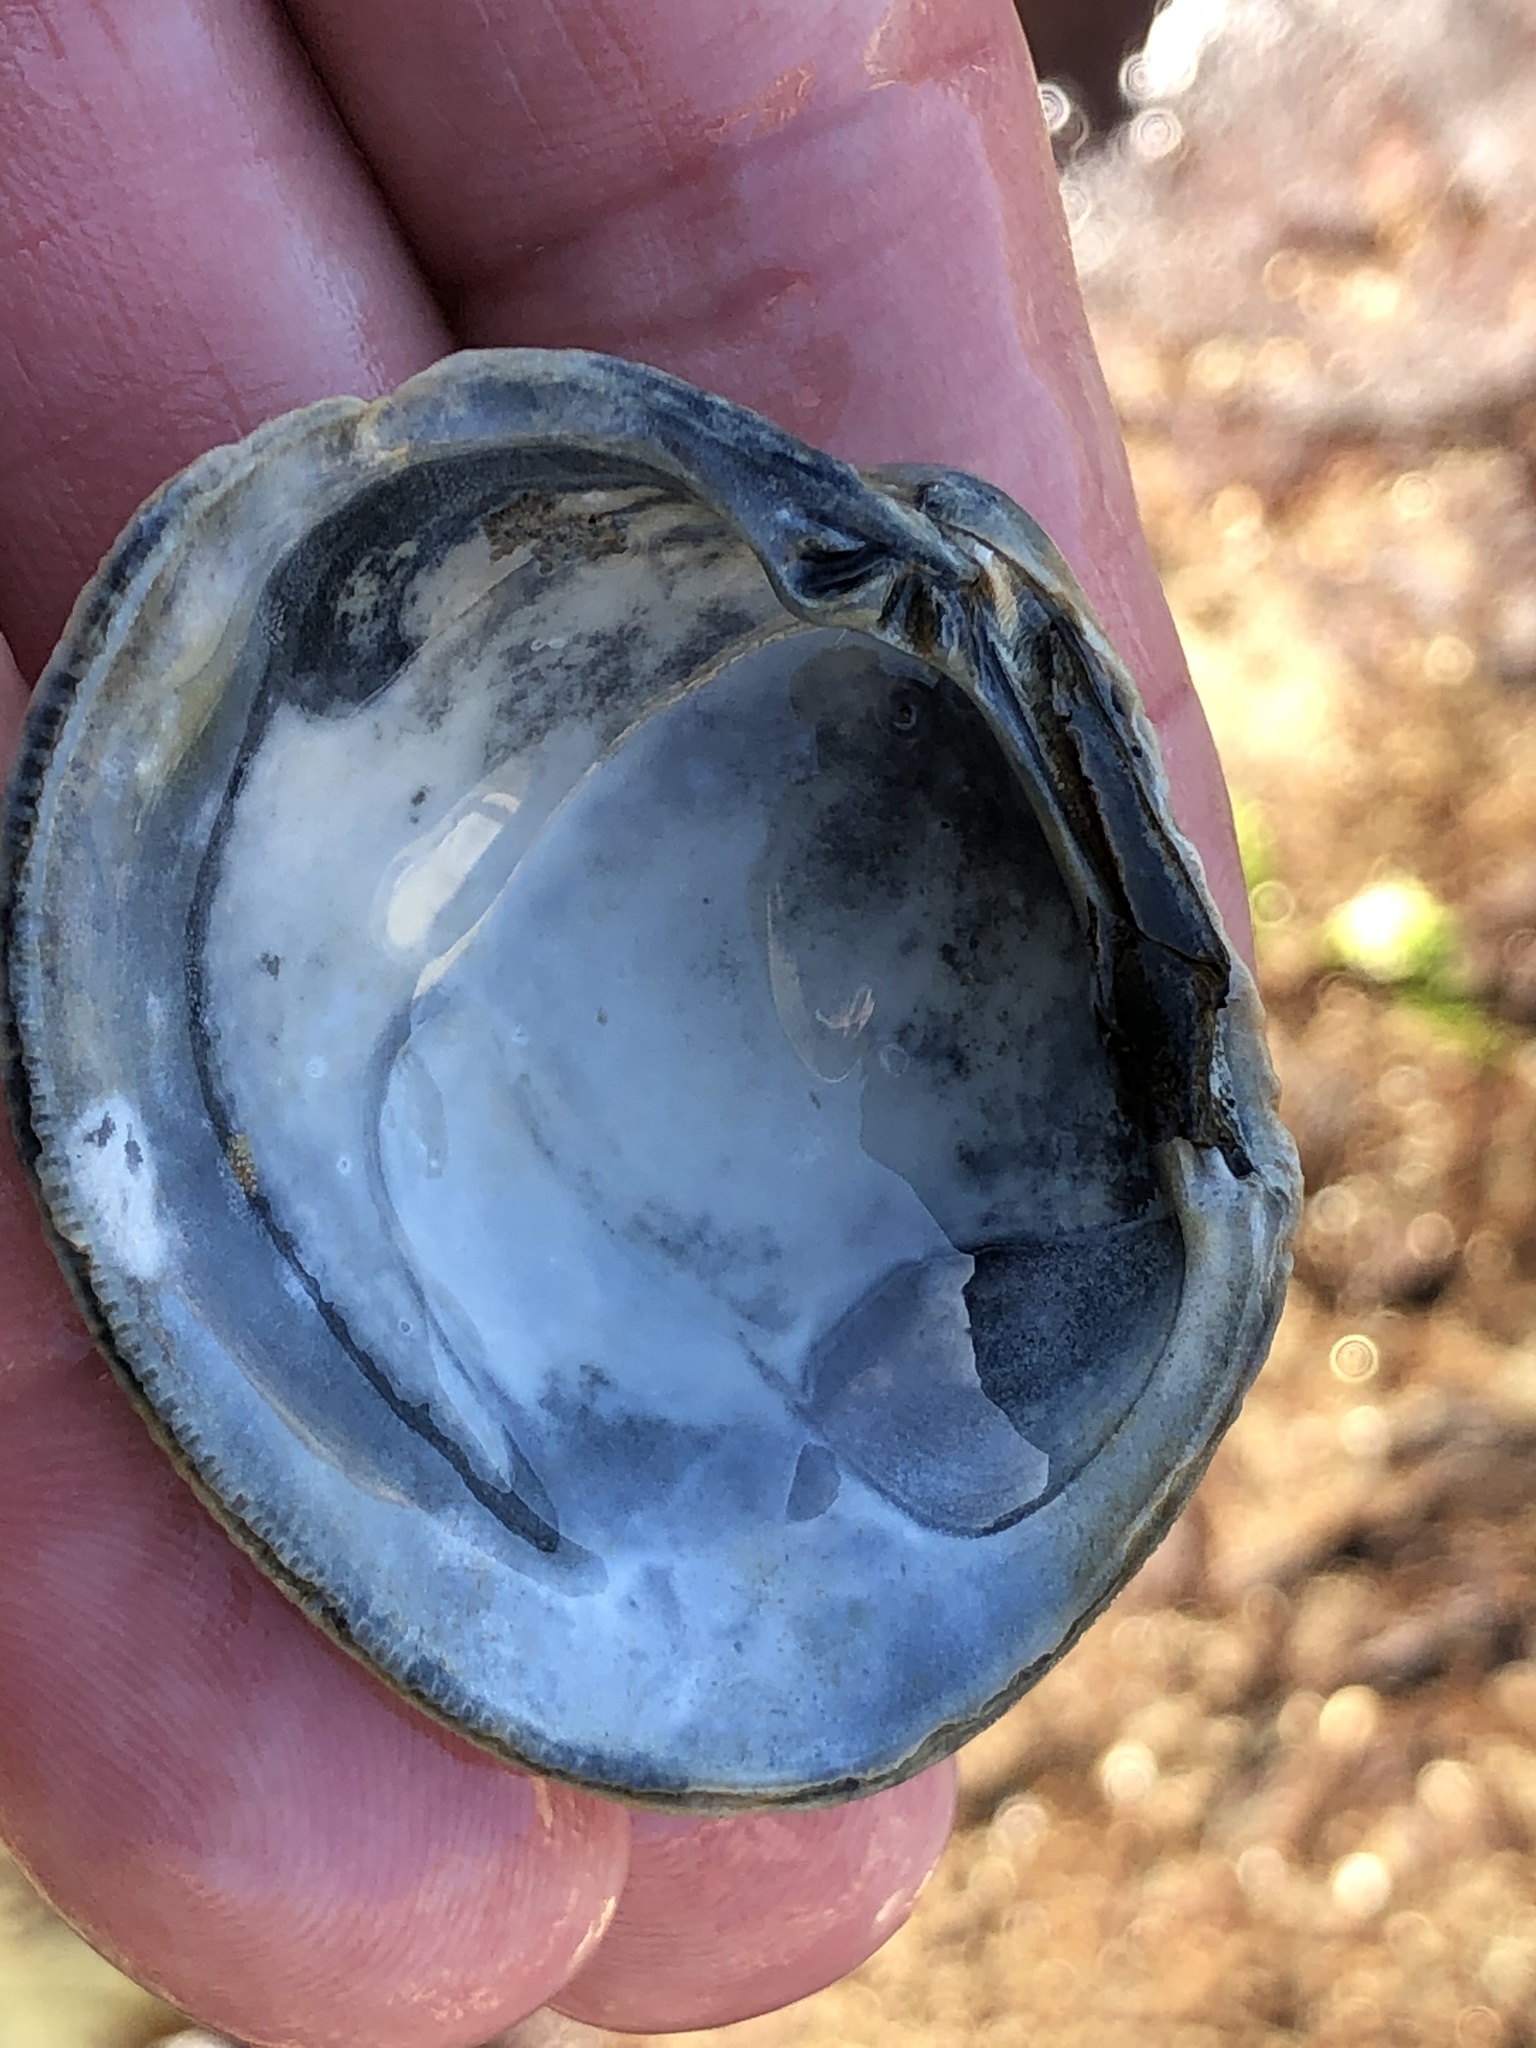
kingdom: Animalia
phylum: Mollusca
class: Bivalvia
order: Venerida
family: Veneridae
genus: Leukoma
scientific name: Leukoma staminea
